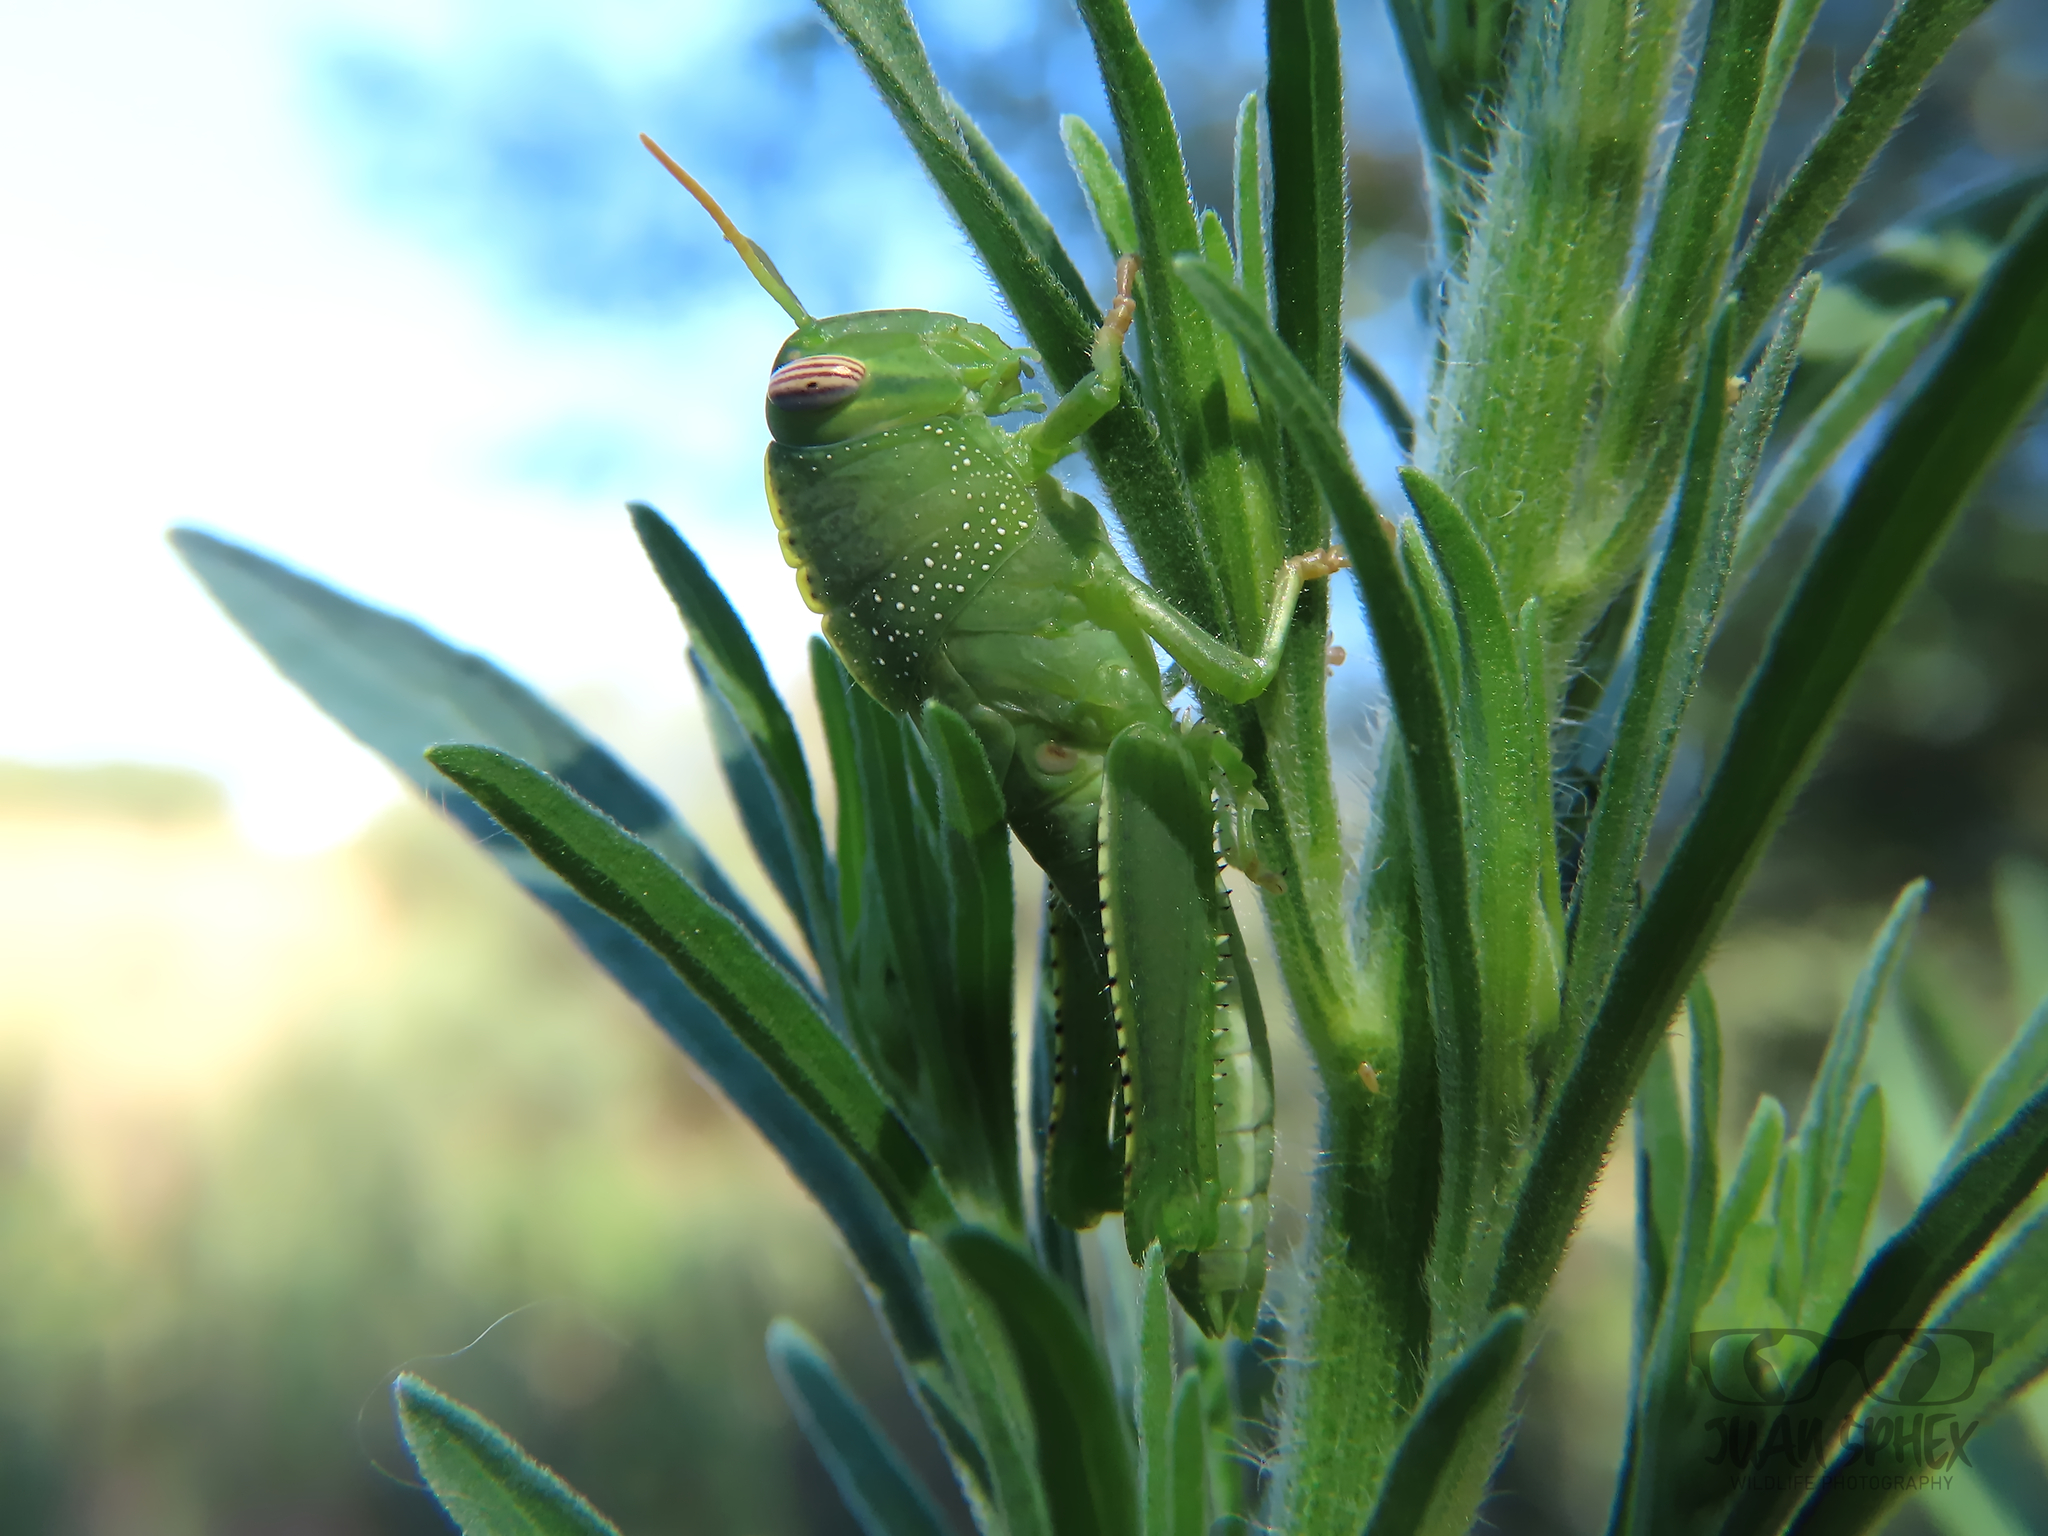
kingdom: Animalia
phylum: Arthropoda
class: Insecta
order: Orthoptera
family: Acrididae
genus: Anacridium
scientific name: Anacridium aegyptium
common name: Egyptian grasshopper
